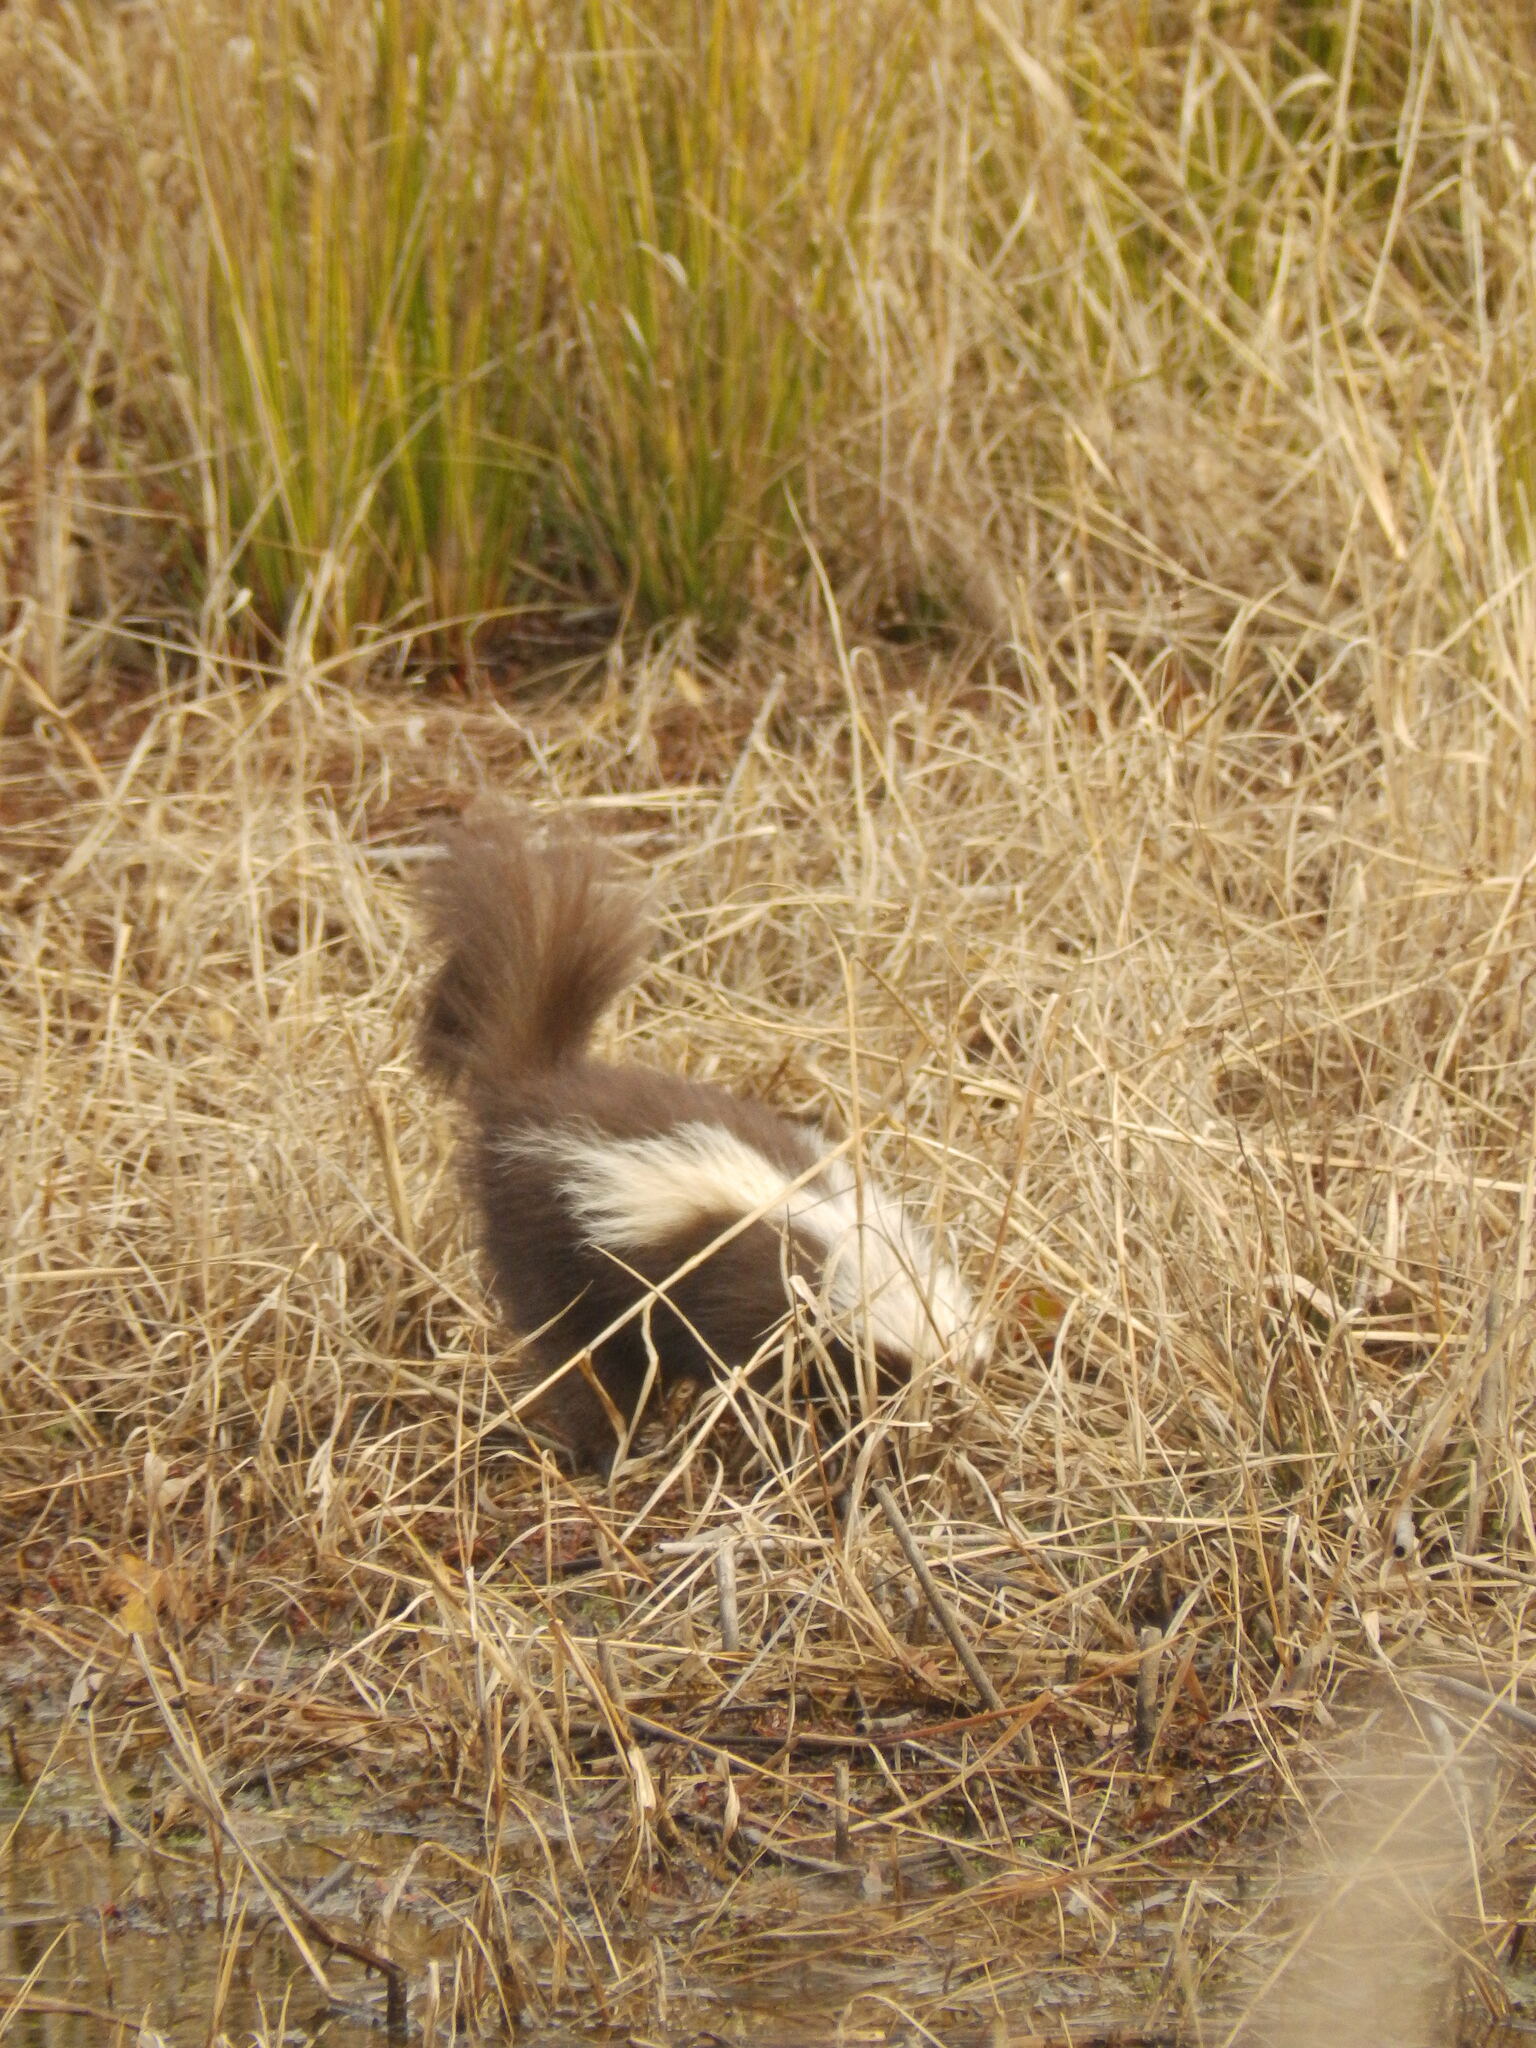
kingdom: Animalia
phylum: Chordata
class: Mammalia
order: Carnivora
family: Mephitidae
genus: Mephitis
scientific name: Mephitis mephitis
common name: Striped skunk
